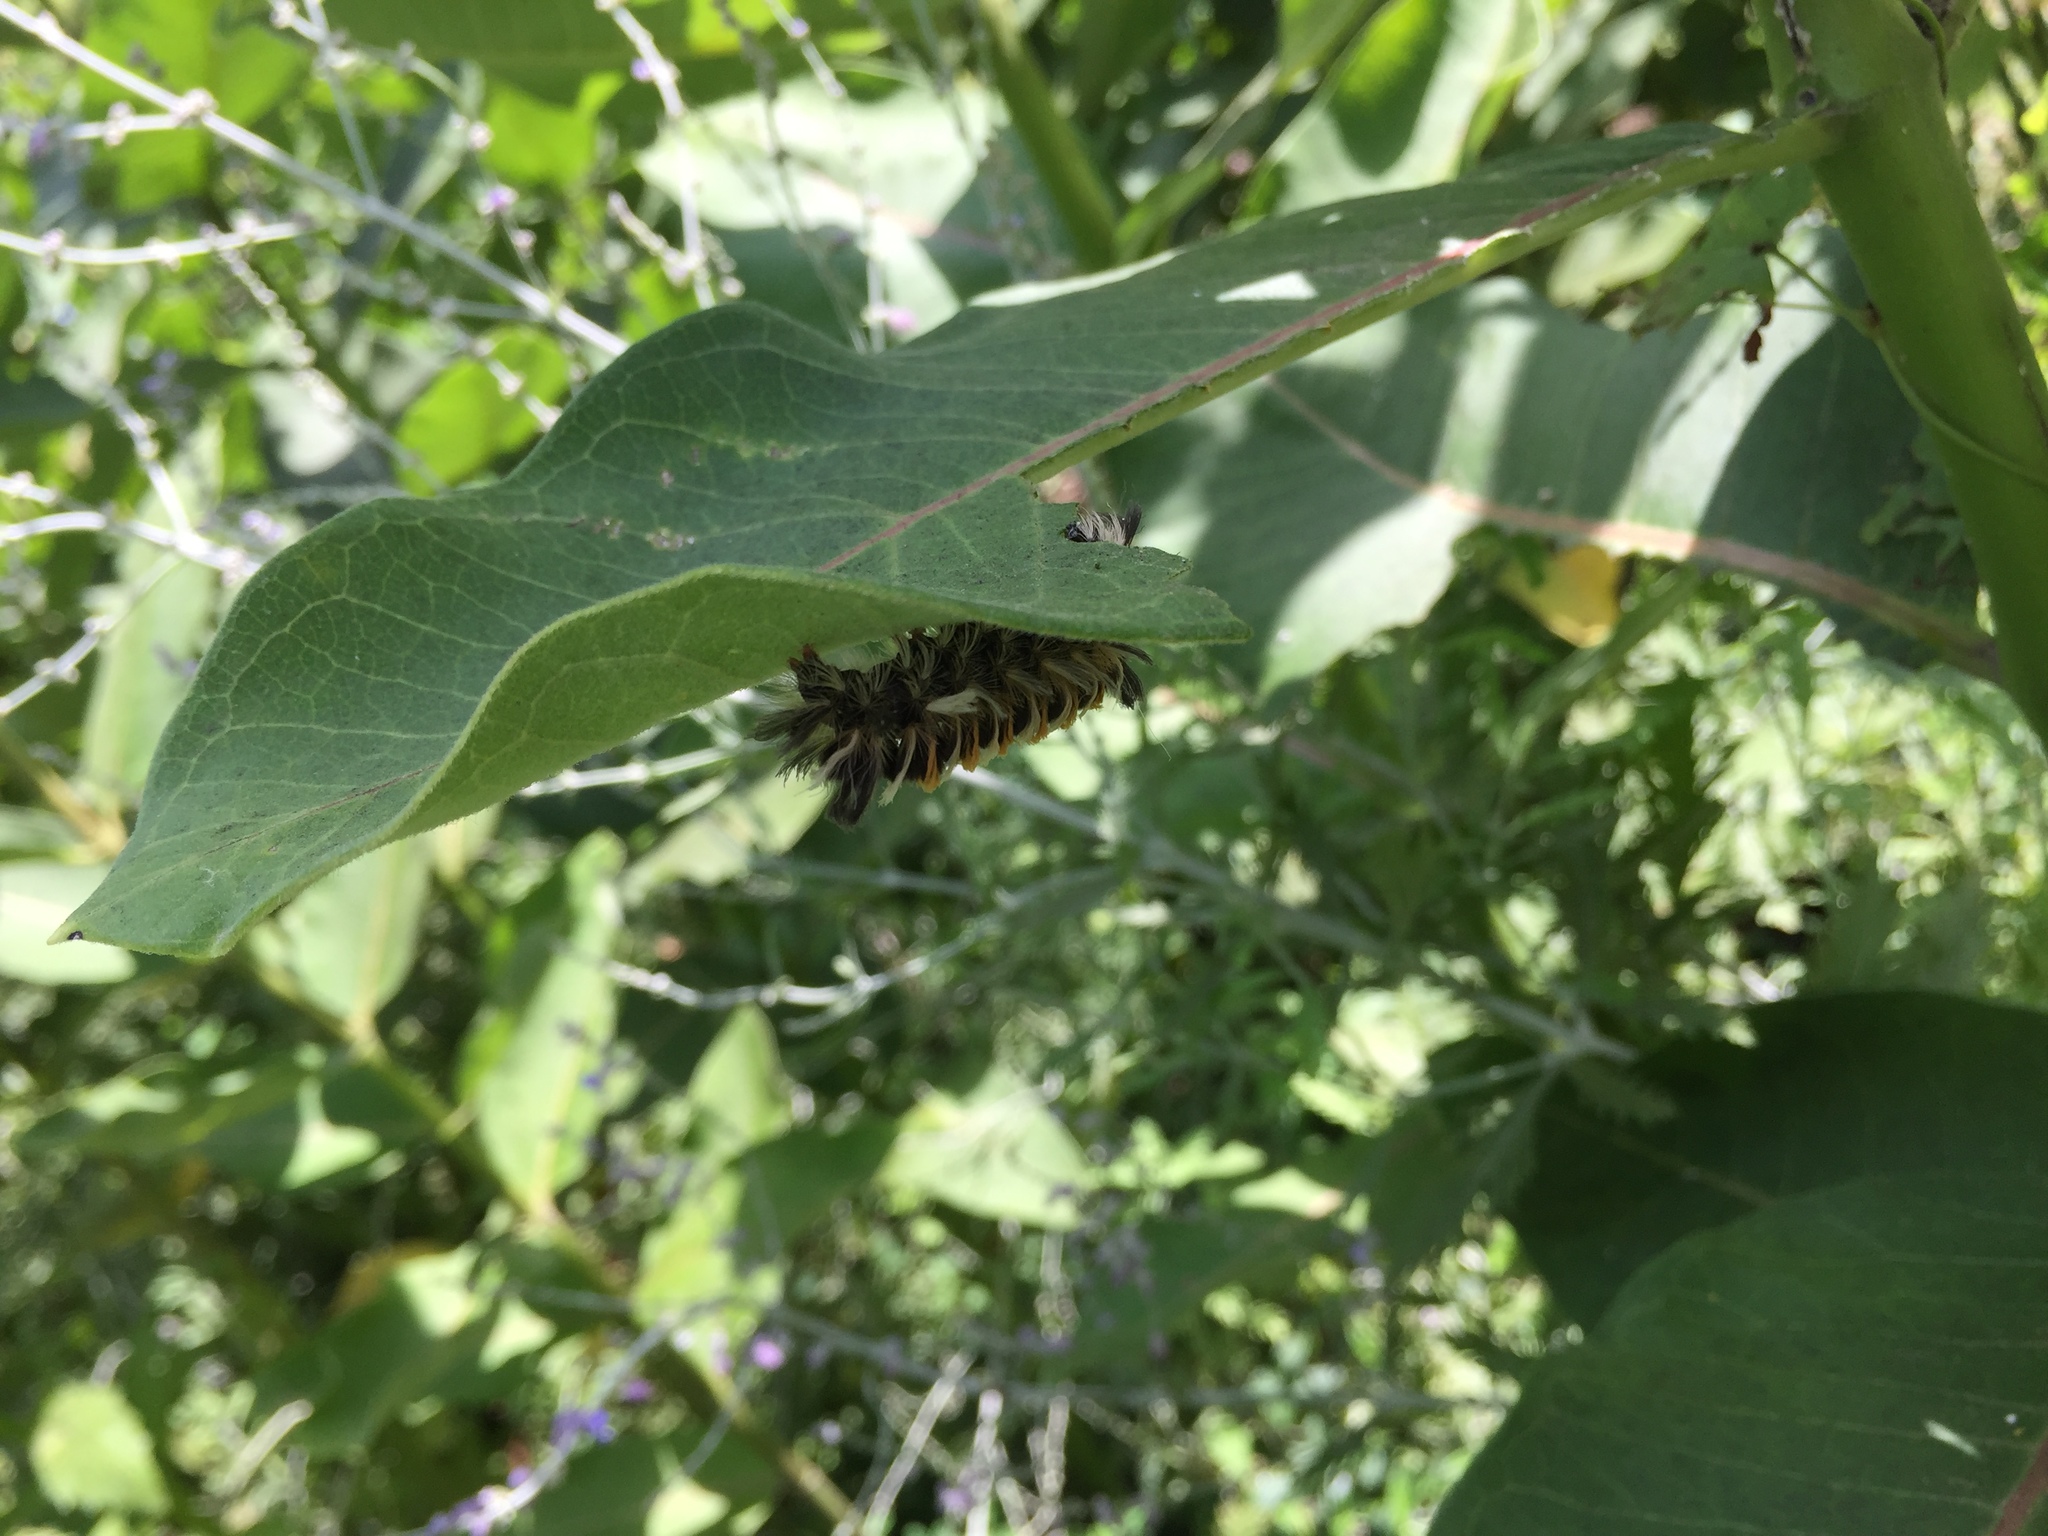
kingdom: Animalia
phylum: Arthropoda
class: Insecta
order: Lepidoptera
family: Erebidae
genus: Euchaetes
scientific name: Euchaetes egle
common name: Milkweed tussock moth
